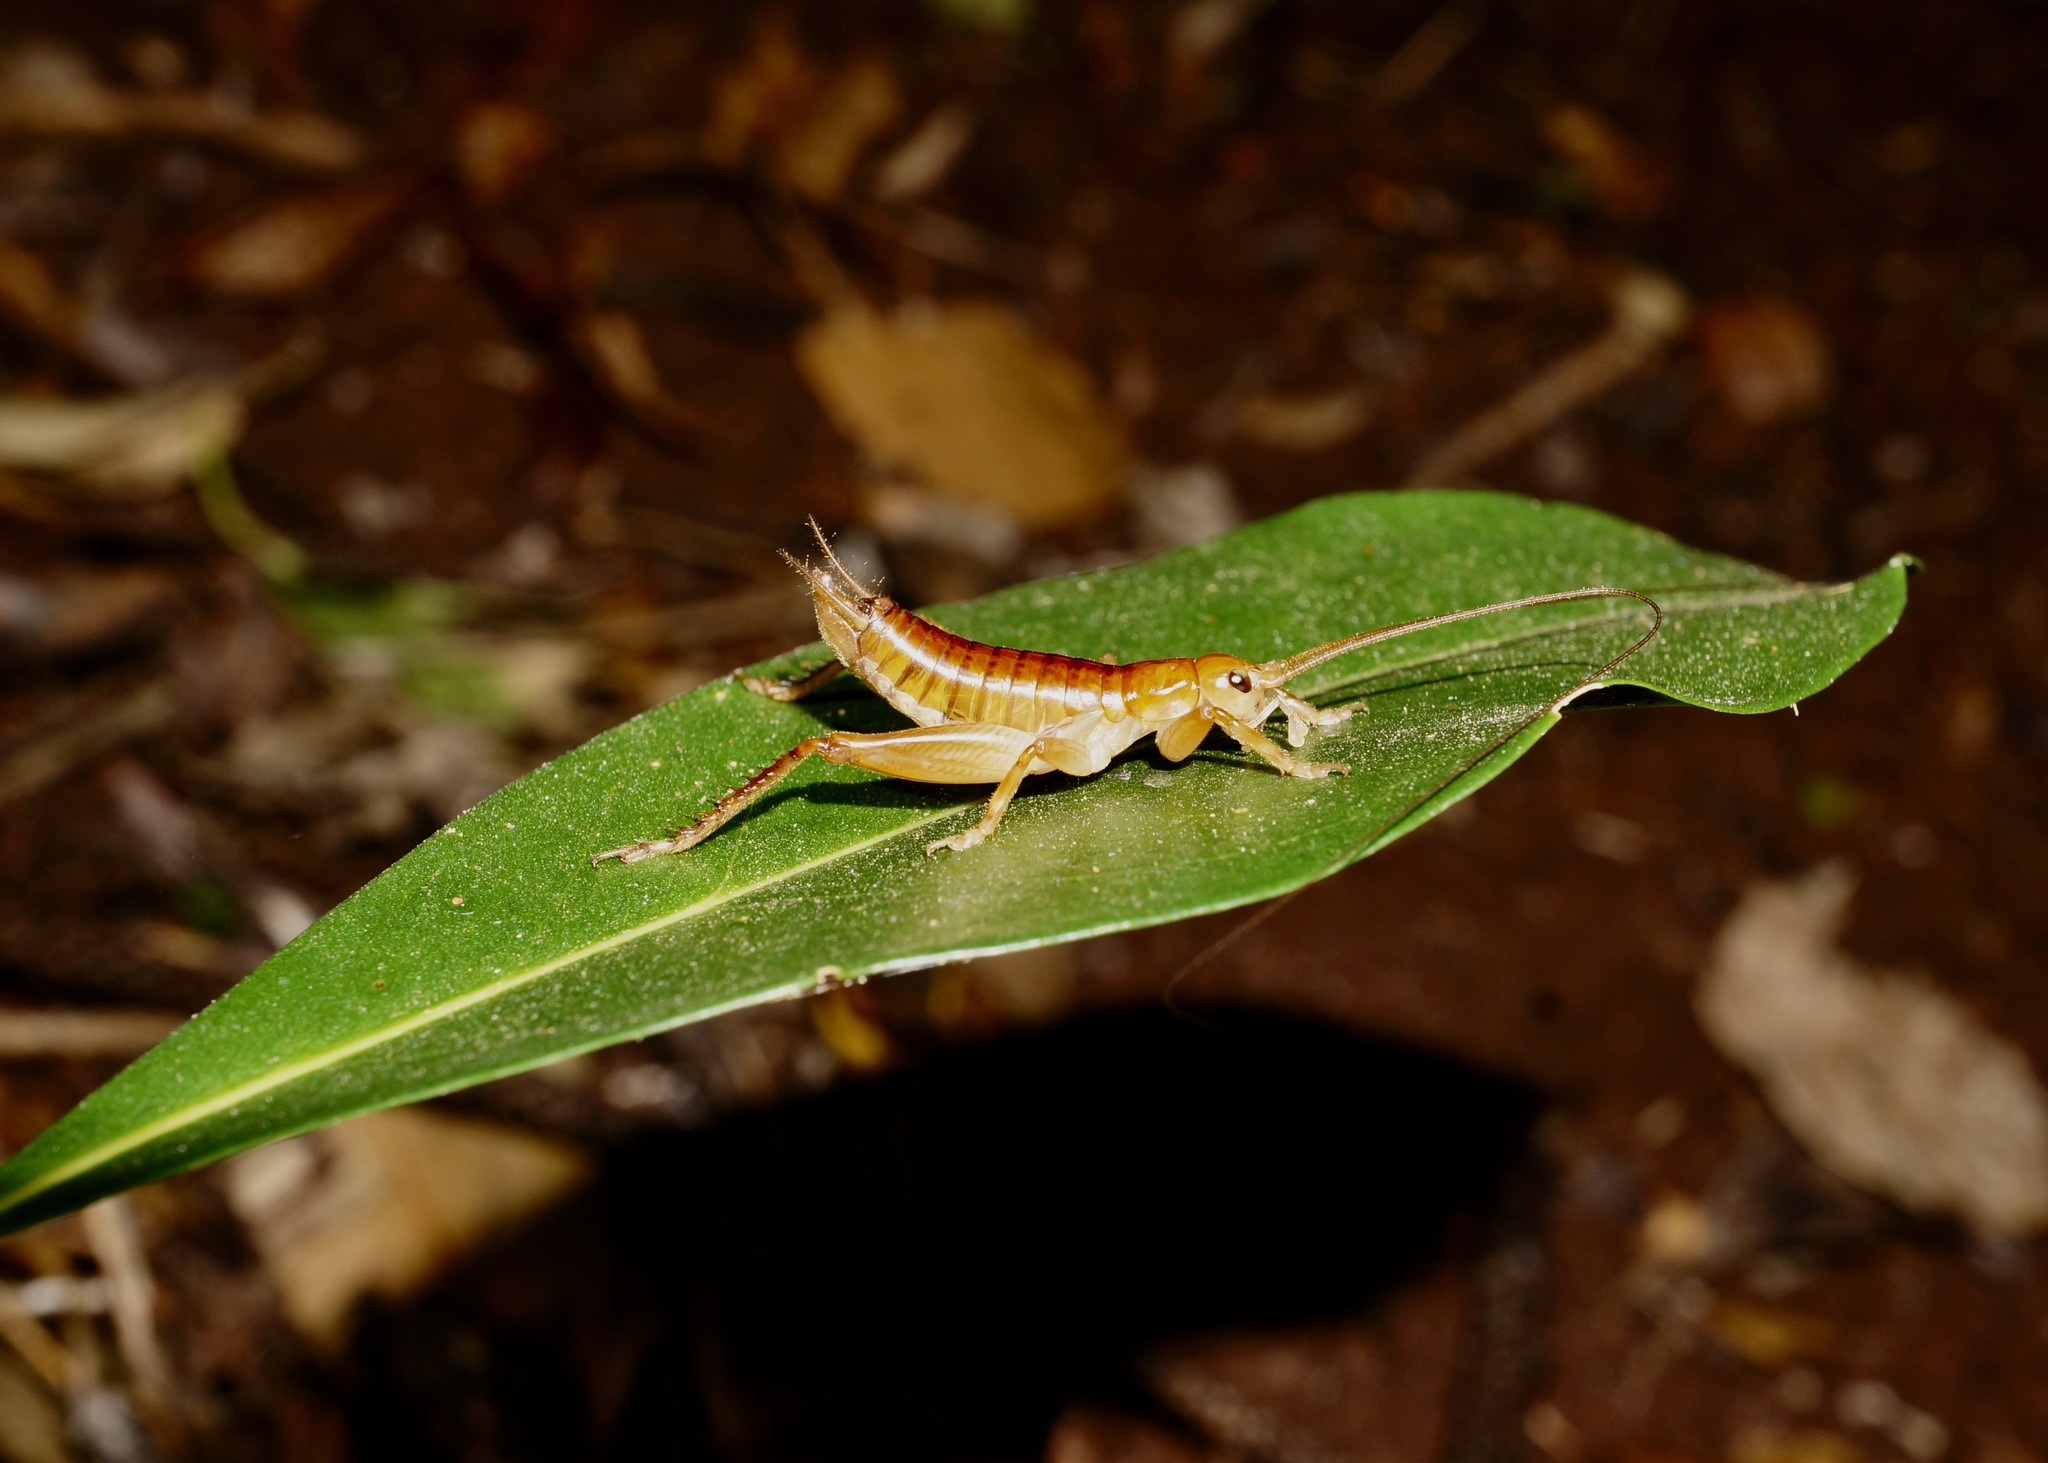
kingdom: Animalia
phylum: Arthropoda
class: Insecta
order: Orthoptera
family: Gryllidae
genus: Insulascirtus
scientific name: Insulascirtus nythos
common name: Nythos island cricket
